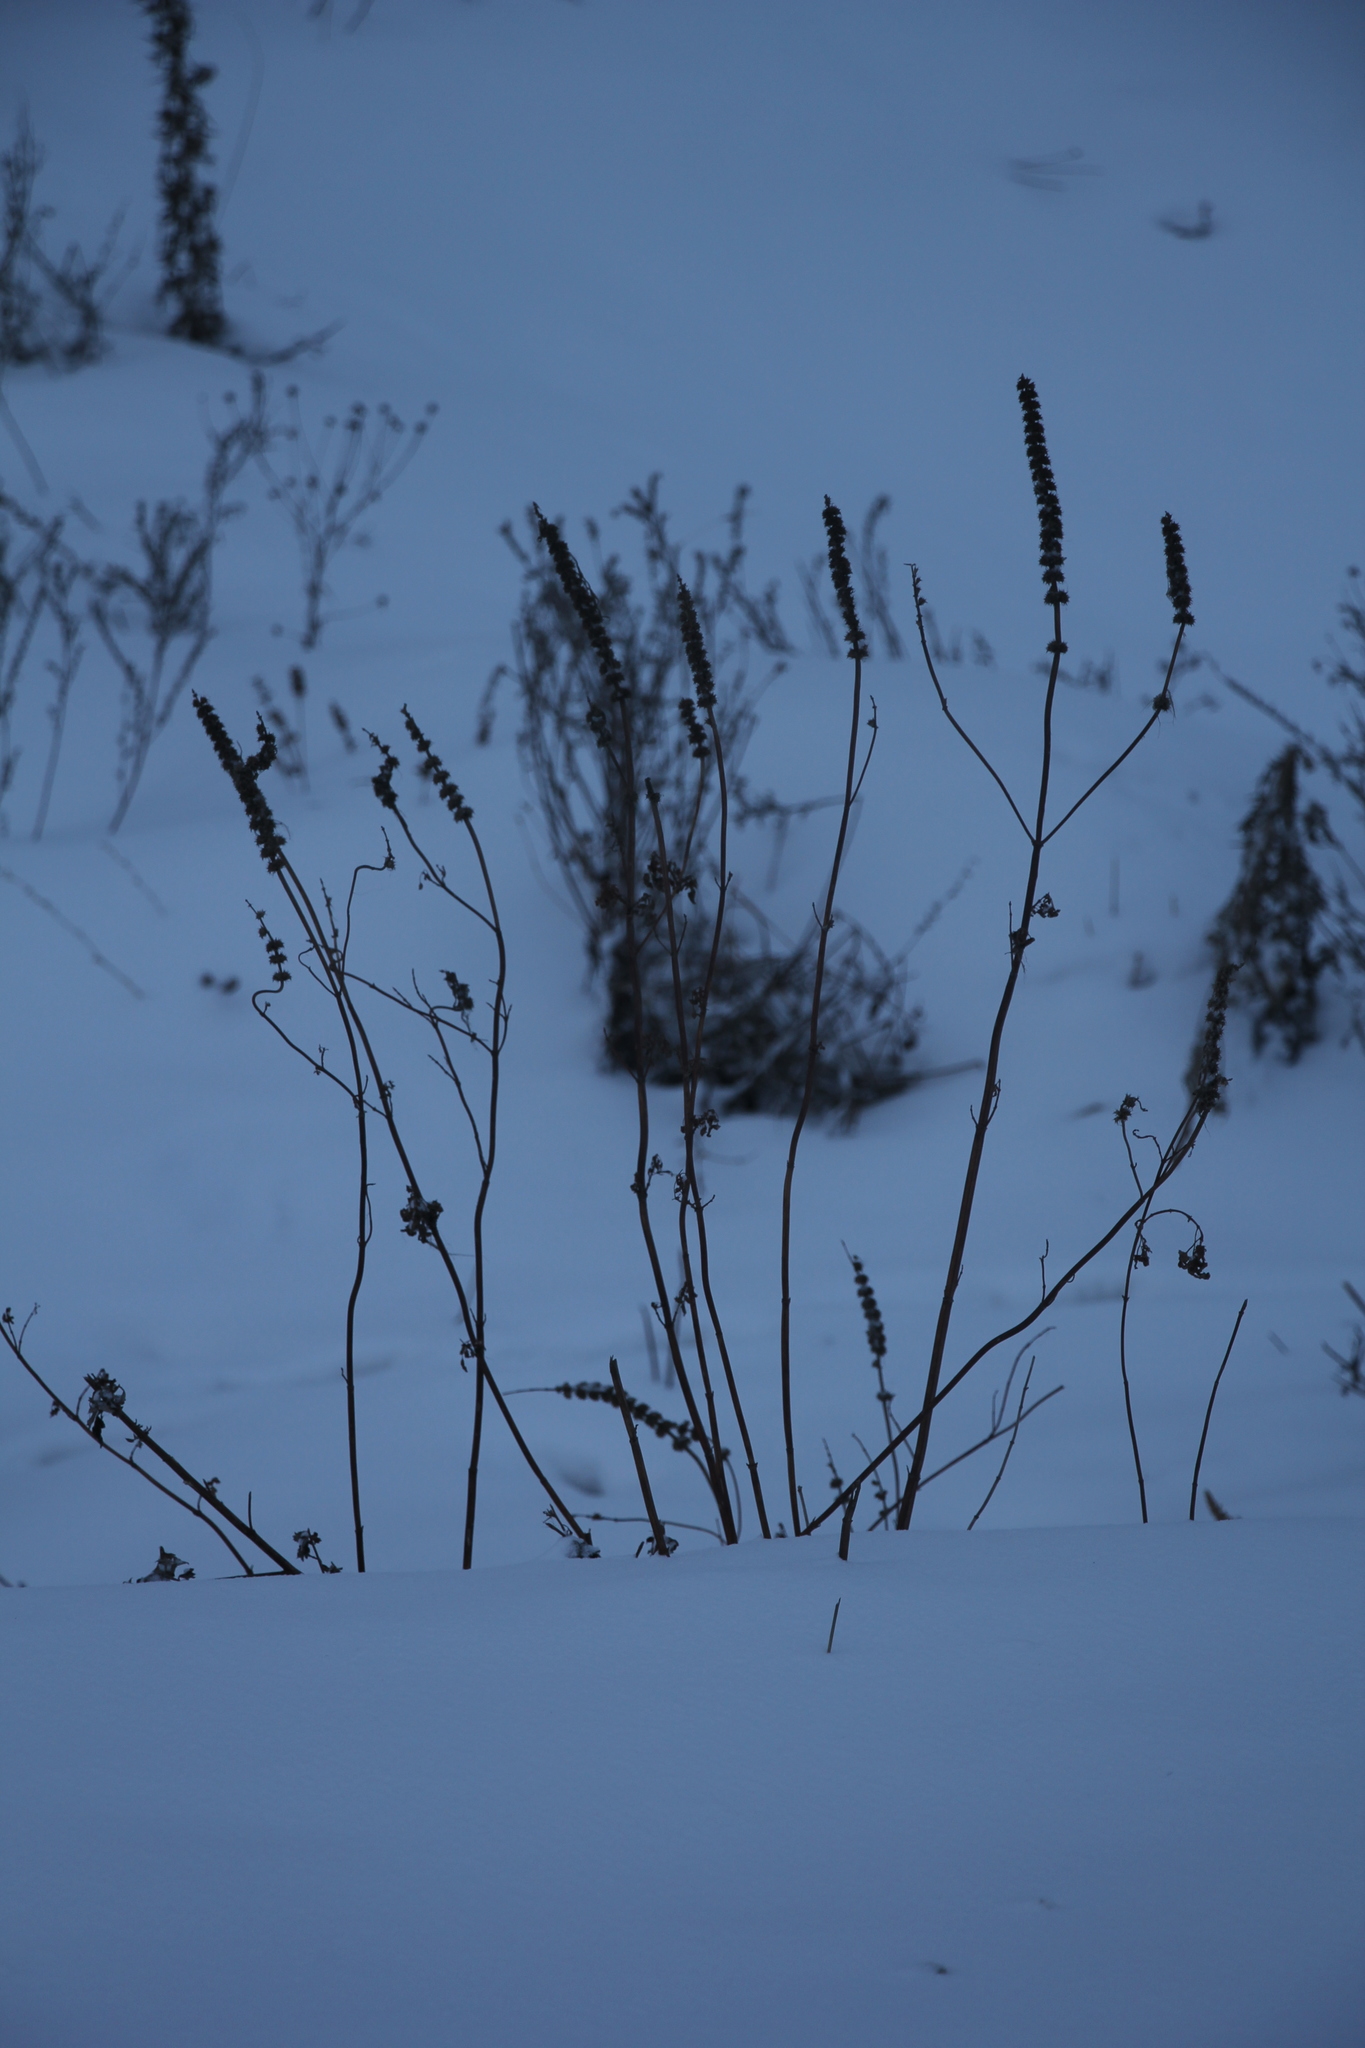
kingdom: Plantae
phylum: Tracheophyta
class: Magnoliopsida
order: Lamiales
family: Lamiaceae
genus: Leonurus
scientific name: Leonurus quinquelobatus
